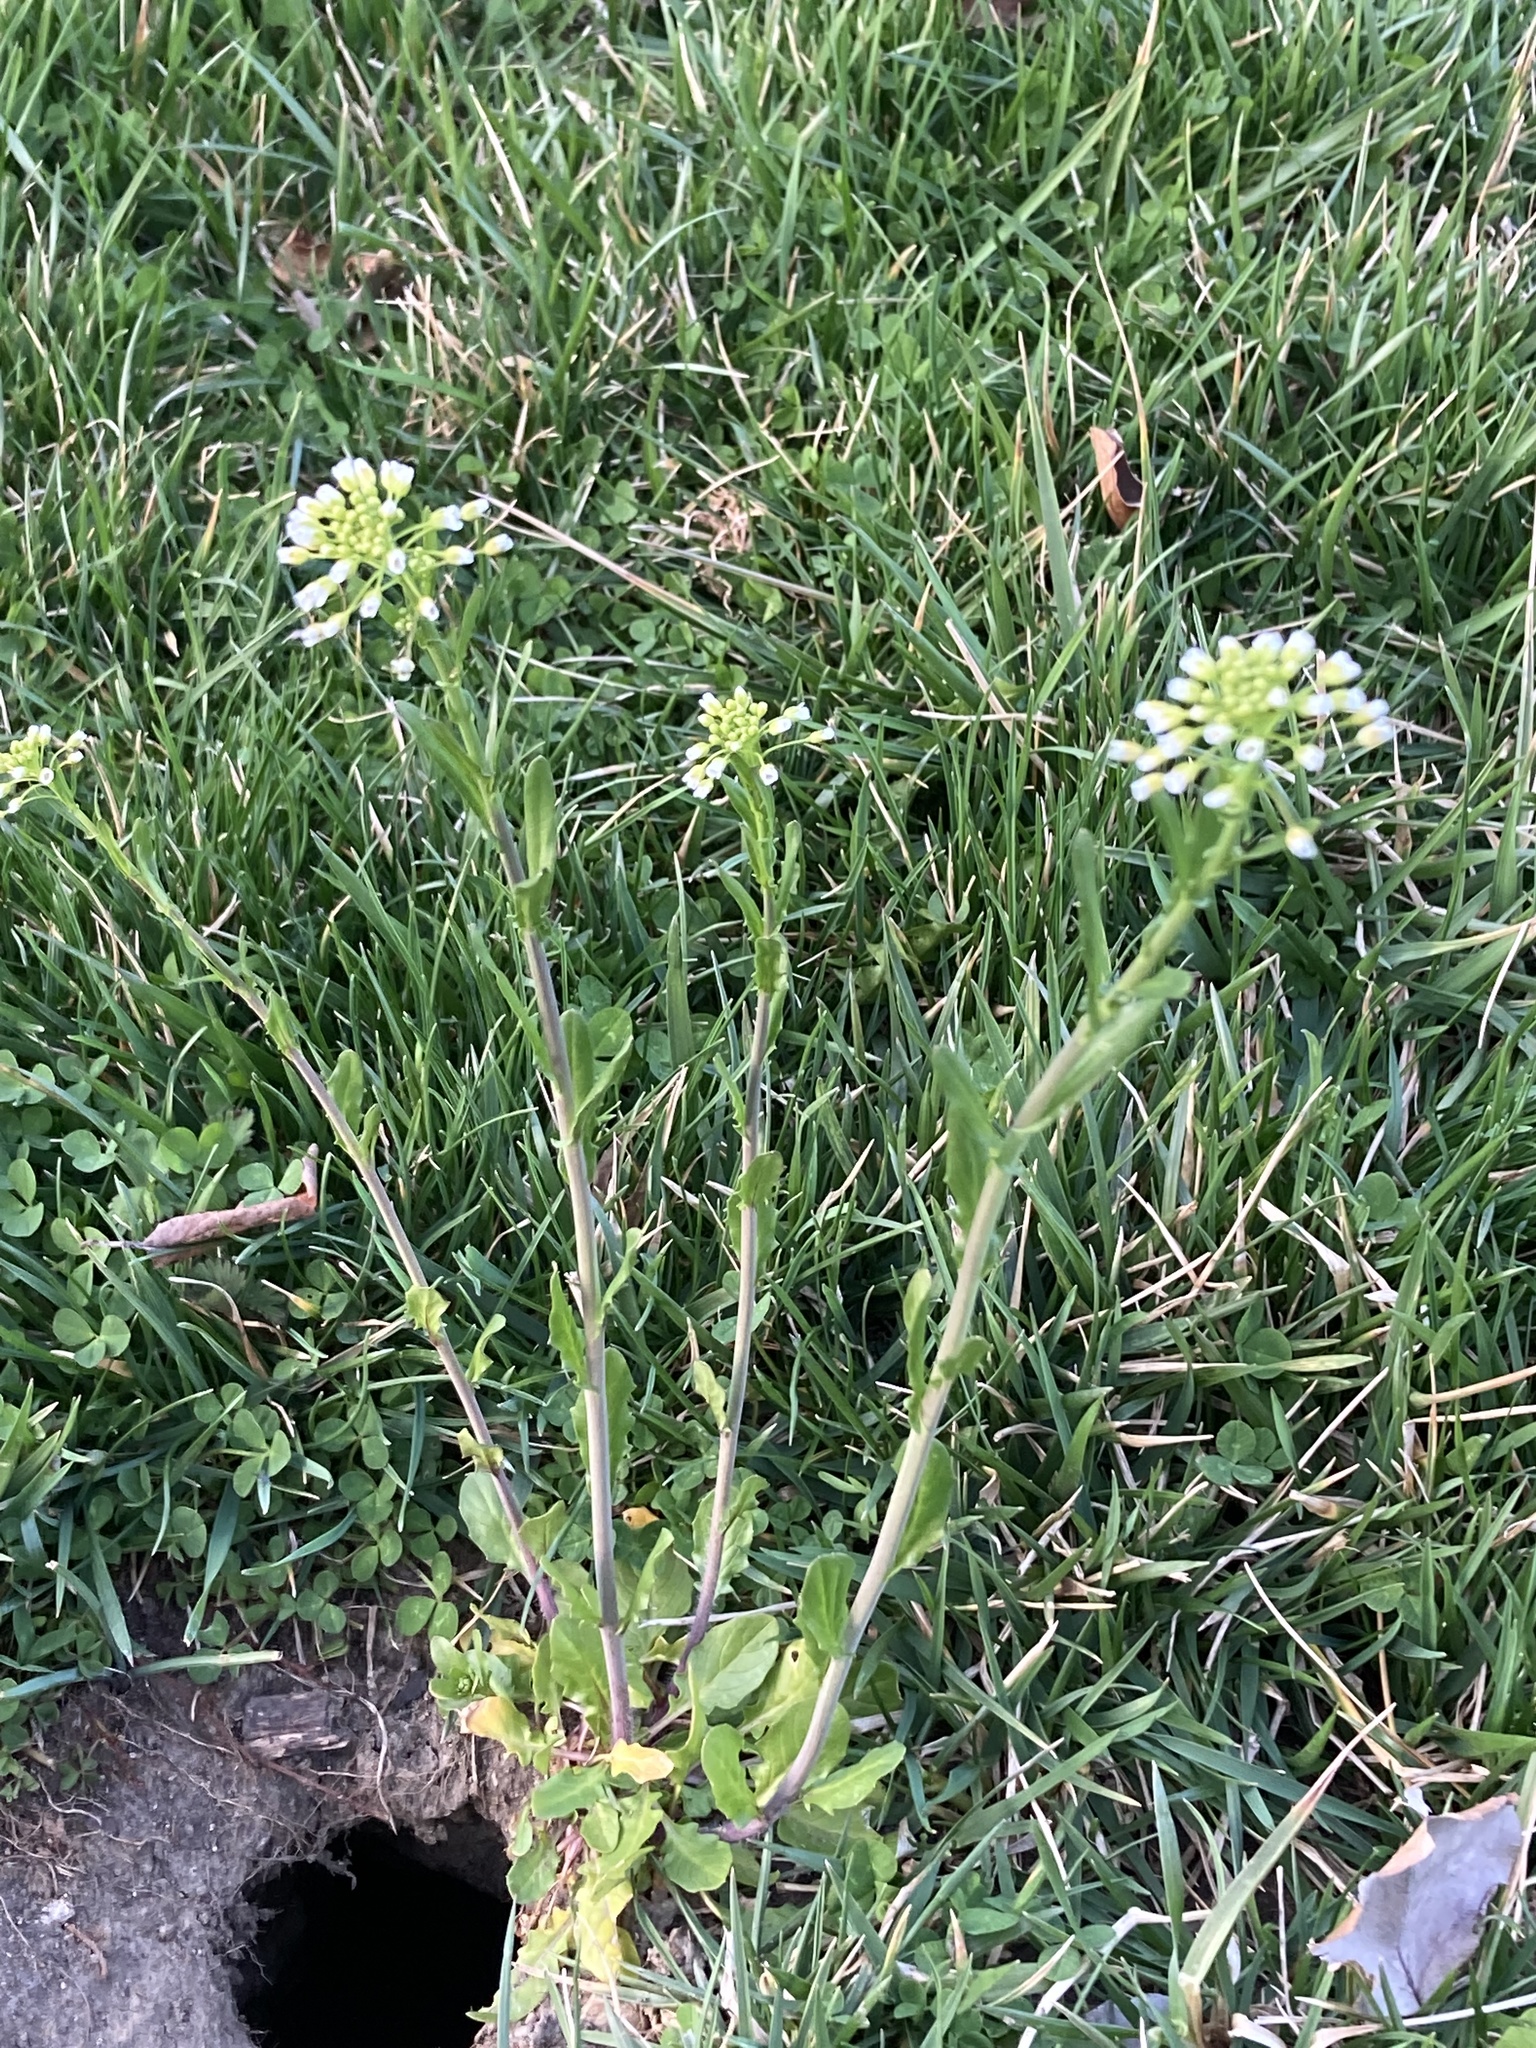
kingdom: Plantae
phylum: Tracheophyta
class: Magnoliopsida
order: Brassicales
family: Brassicaceae
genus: Mummenhoffia
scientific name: Mummenhoffia alliacea
